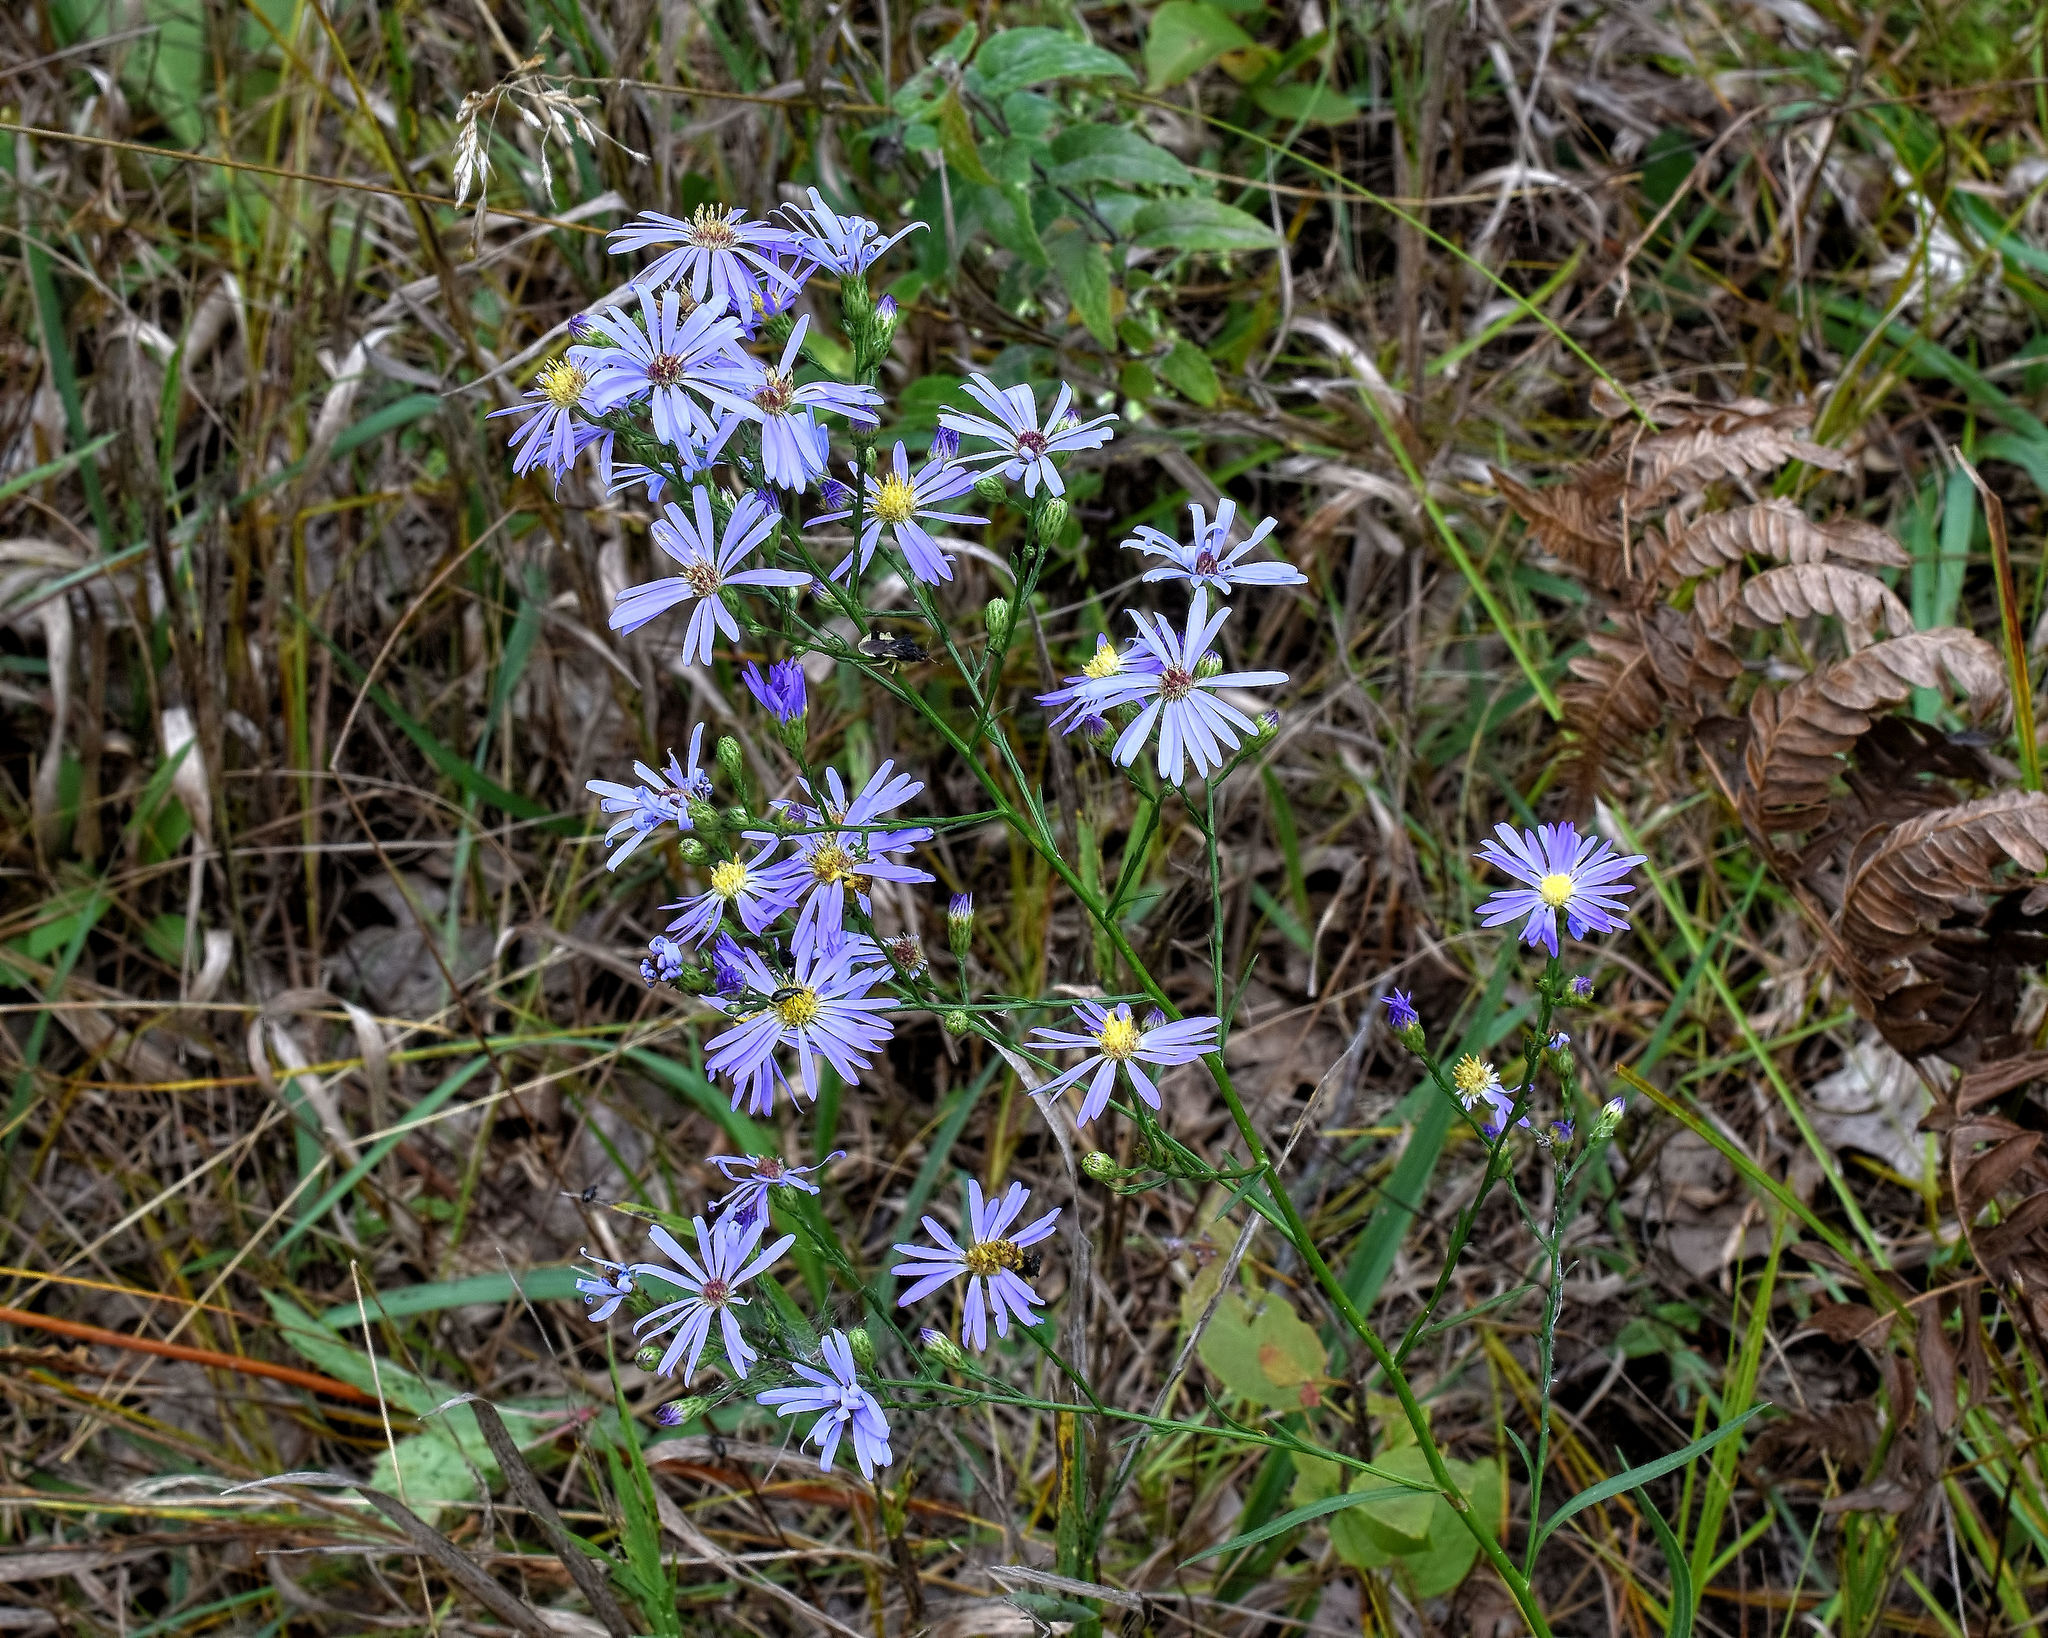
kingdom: Plantae
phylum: Tracheophyta
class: Magnoliopsida
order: Asterales
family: Asteraceae
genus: Symphyotrichum
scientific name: Symphyotrichum oolentangiense
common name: Azure aster
